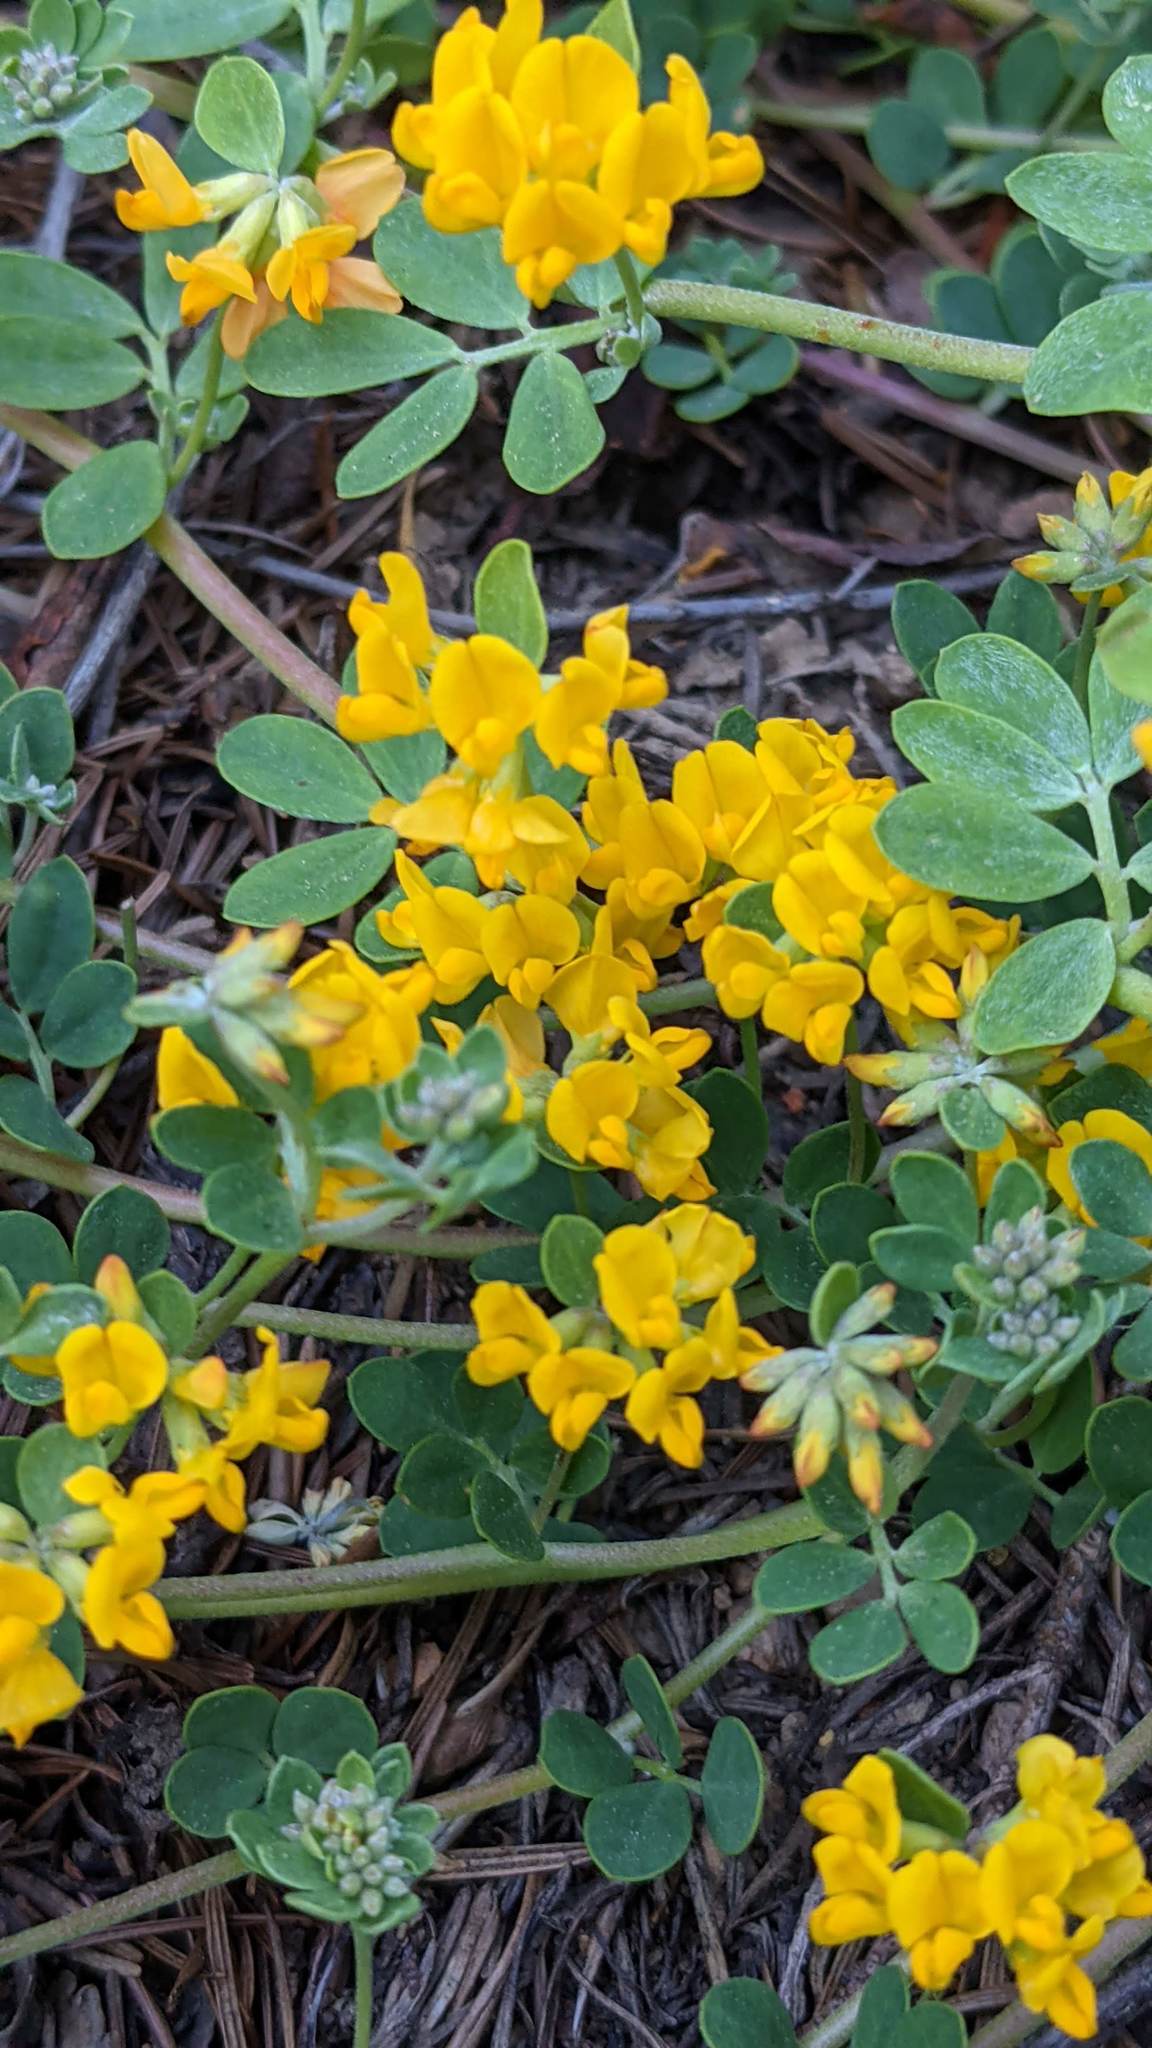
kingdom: Plantae
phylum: Tracheophyta
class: Magnoliopsida
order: Fabales
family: Fabaceae
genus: Acmispon
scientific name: Acmispon junceus
